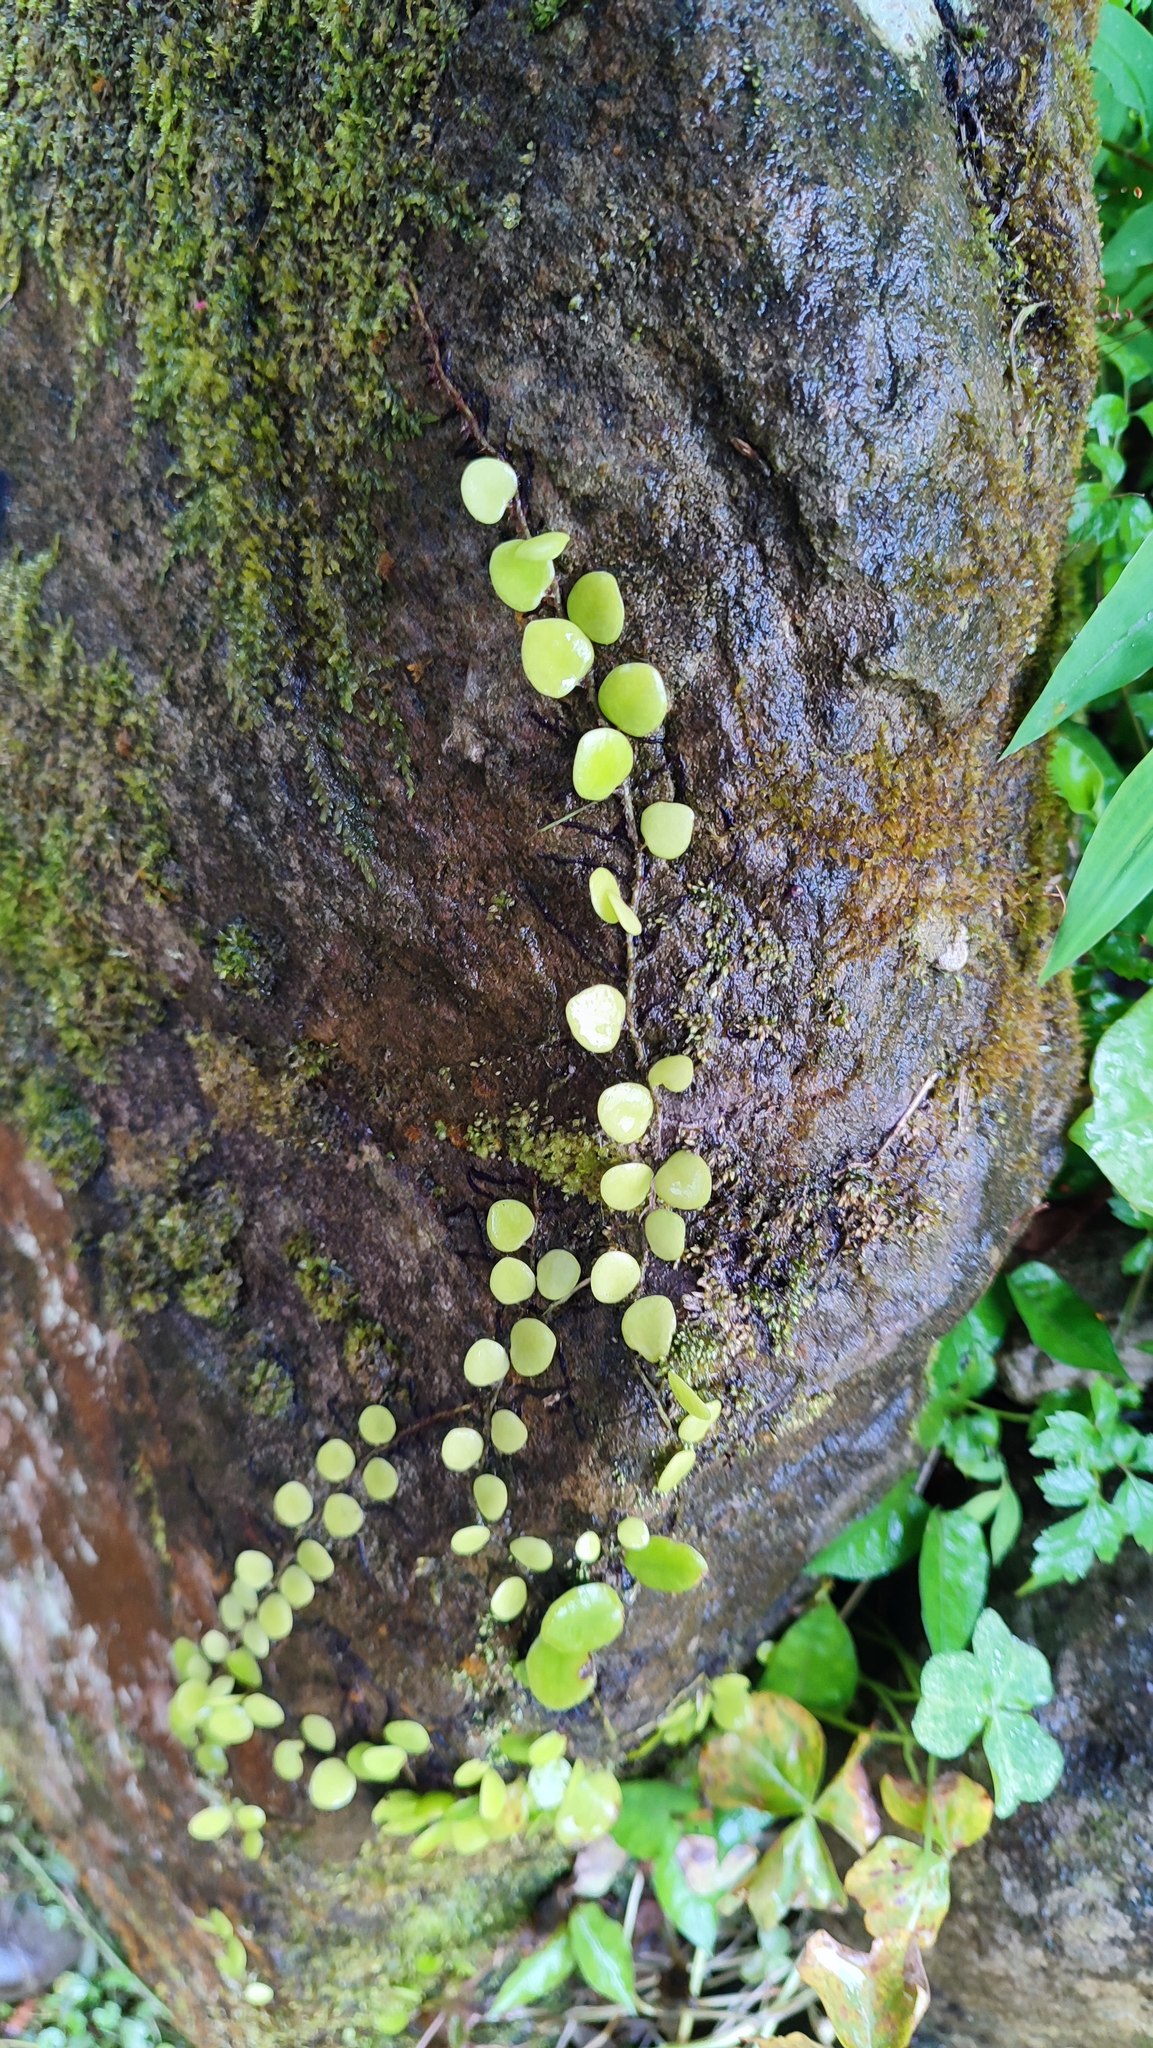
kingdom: Plantae
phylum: Tracheophyta
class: Polypodiopsida
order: Polypodiales
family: Polypodiaceae
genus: Lepisorus
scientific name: Lepisorus microphyllus
